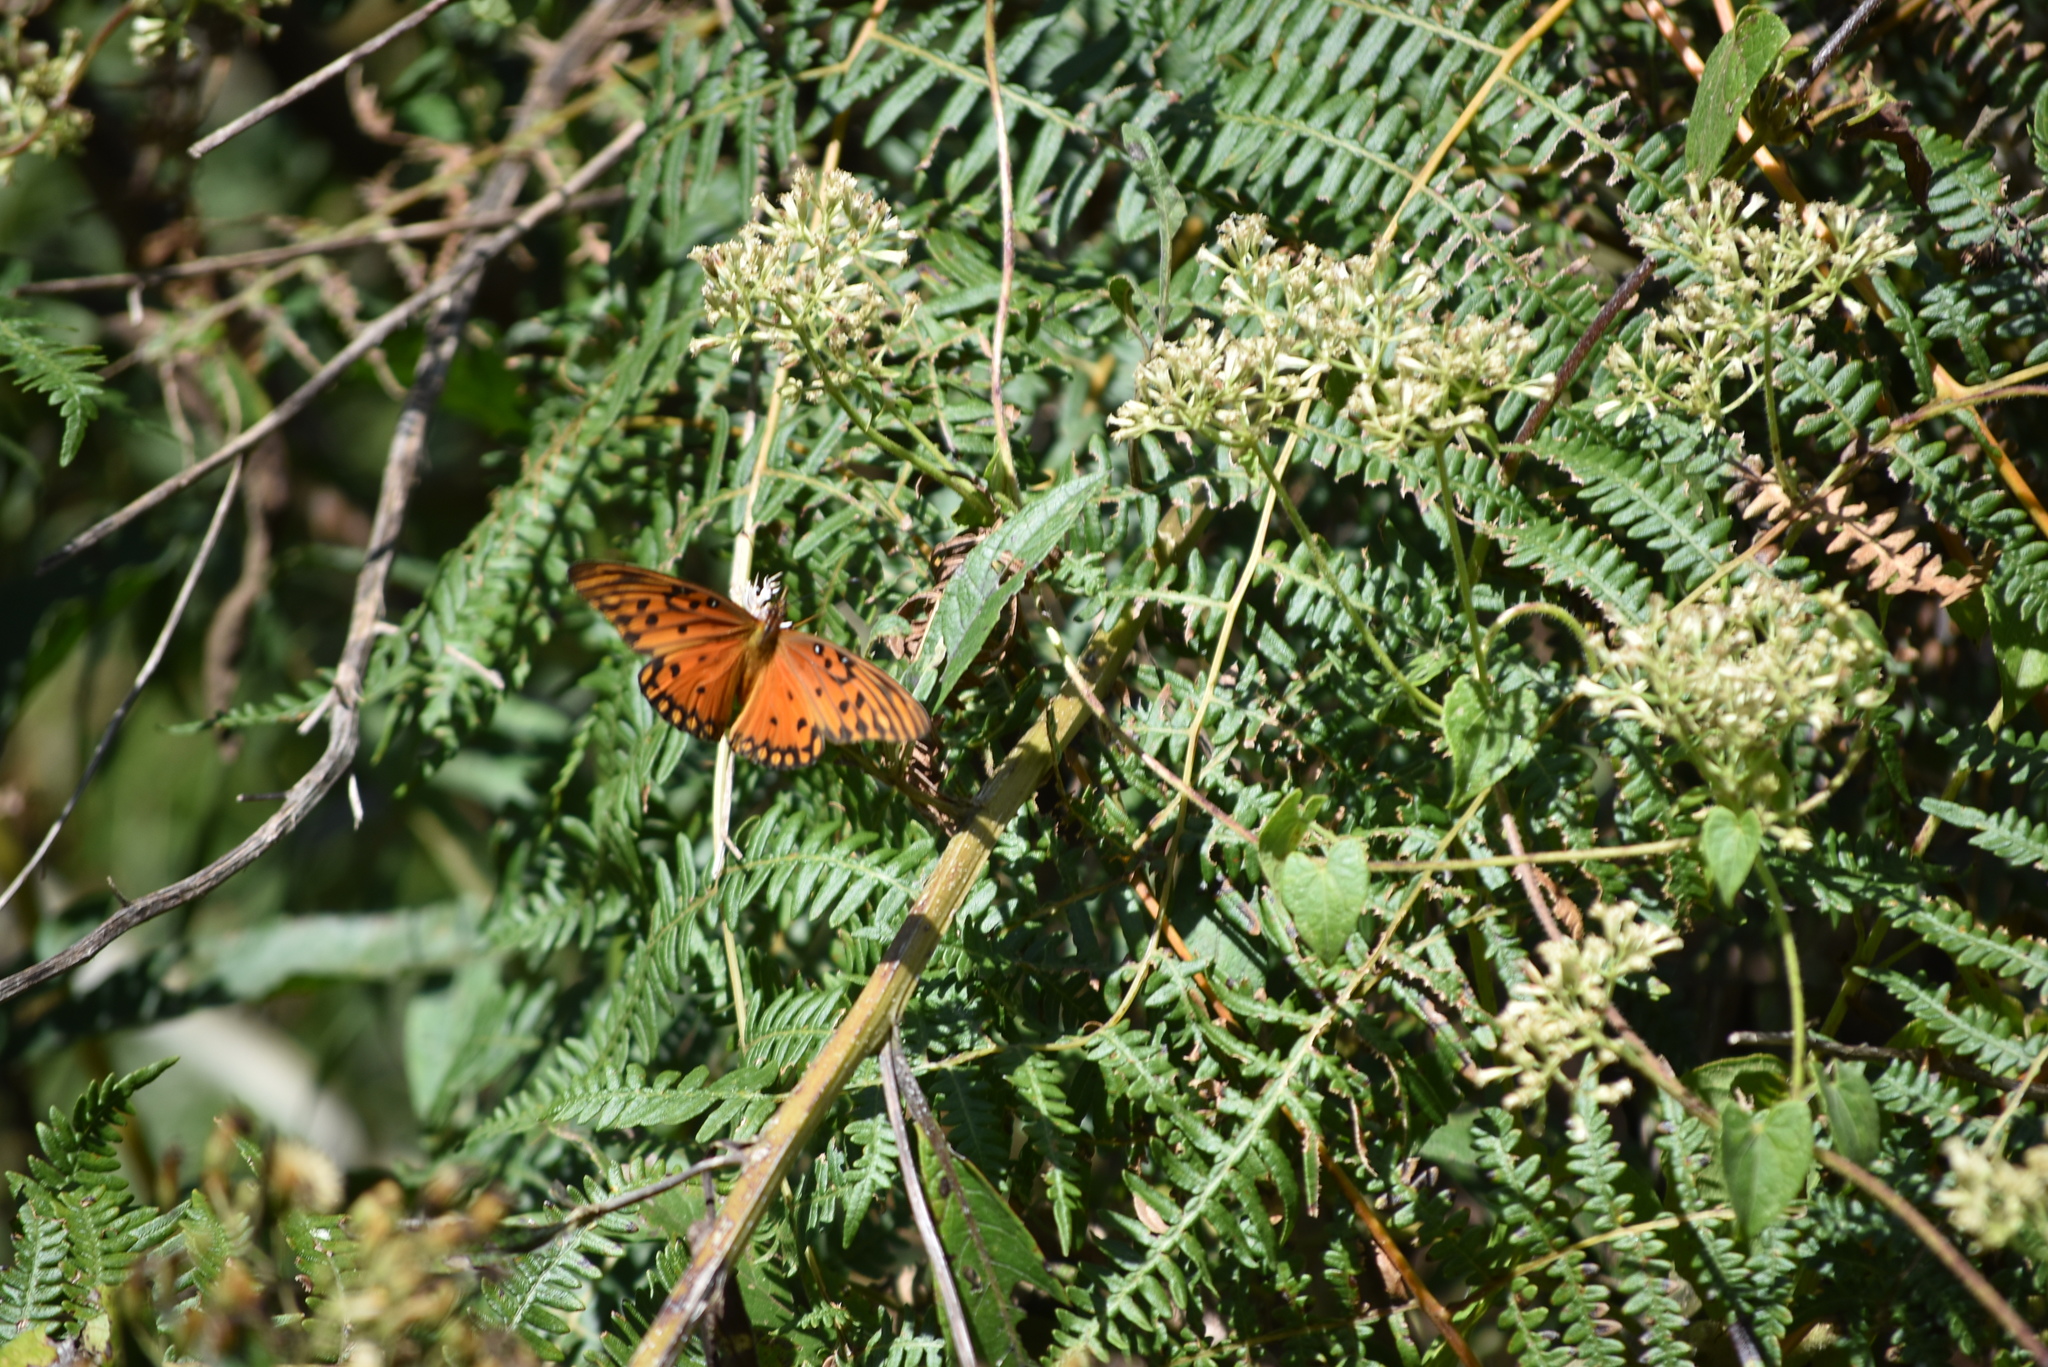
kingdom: Animalia
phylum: Arthropoda
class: Insecta
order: Lepidoptera
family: Nymphalidae
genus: Dione
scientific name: Dione vanillae
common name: Gulf fritillary
